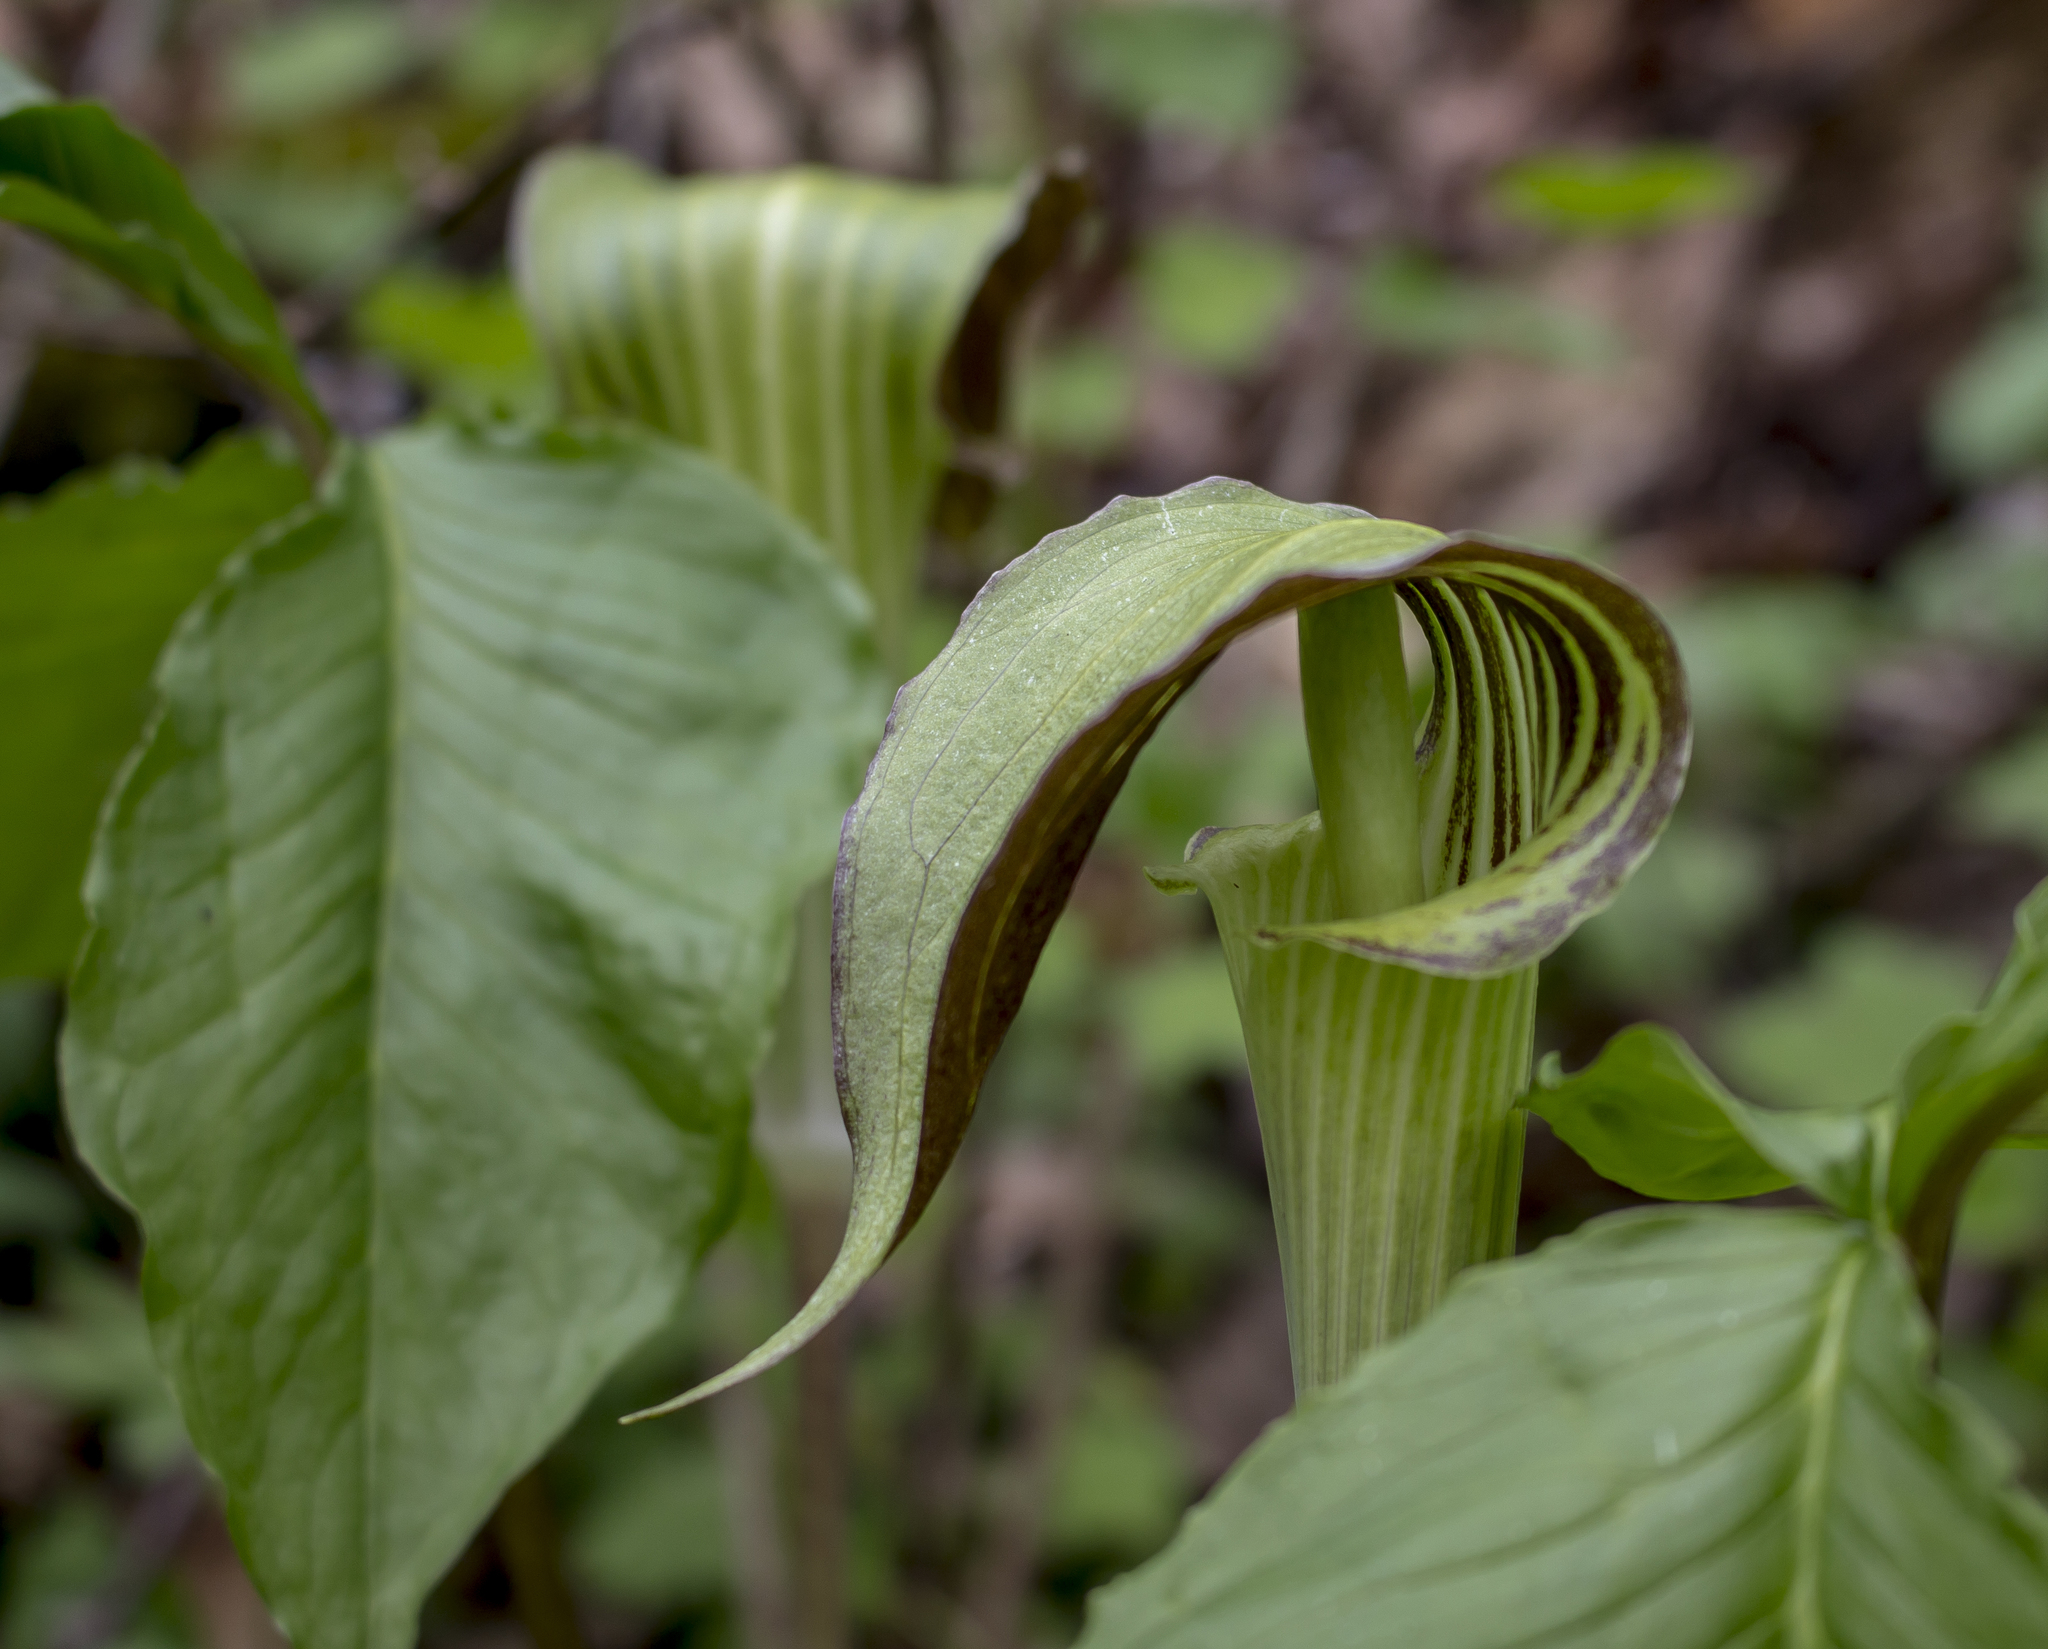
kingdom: Plantae
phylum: Tracheophyta
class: Liliopsida
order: Alismatales
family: Araceae
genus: Arisaema
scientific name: Arisaema triphyllum
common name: Jack-in-the-pulpit
